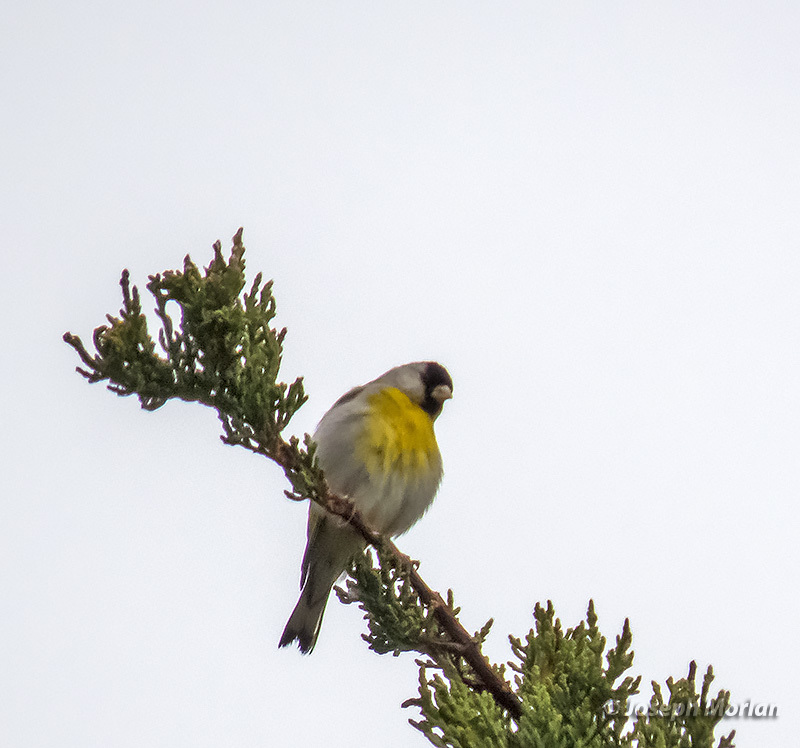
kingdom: Animalia
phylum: Chordata
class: Aves
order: Passeriformes
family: Fringillidae
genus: Spinus
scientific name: Spinus lawrencei
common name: Lawrence's goldfinch
